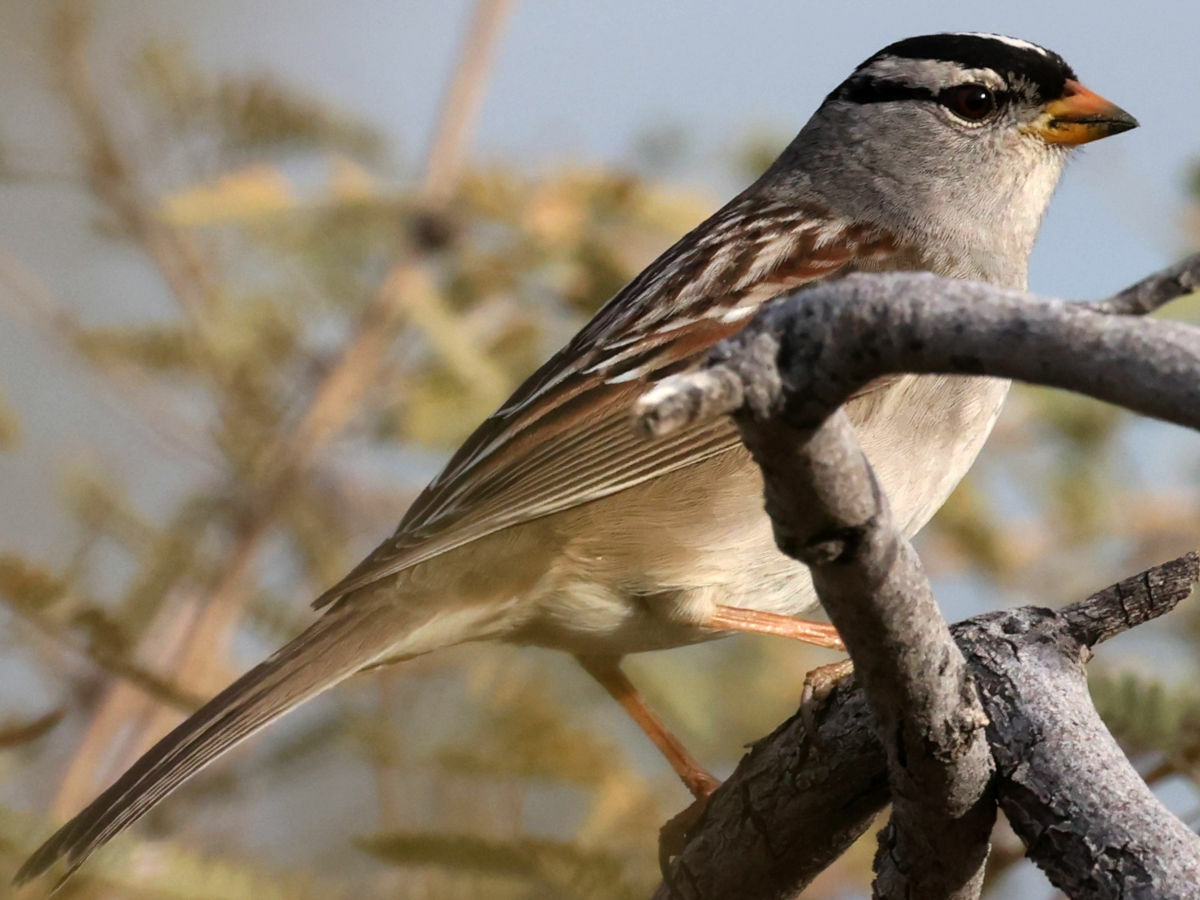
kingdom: Animalia
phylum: Chordata
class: Aves
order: Passeriformes
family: Passerellidae
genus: Zonotrichia
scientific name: Zonotrichia leucophrys
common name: White-crowned sparrow
